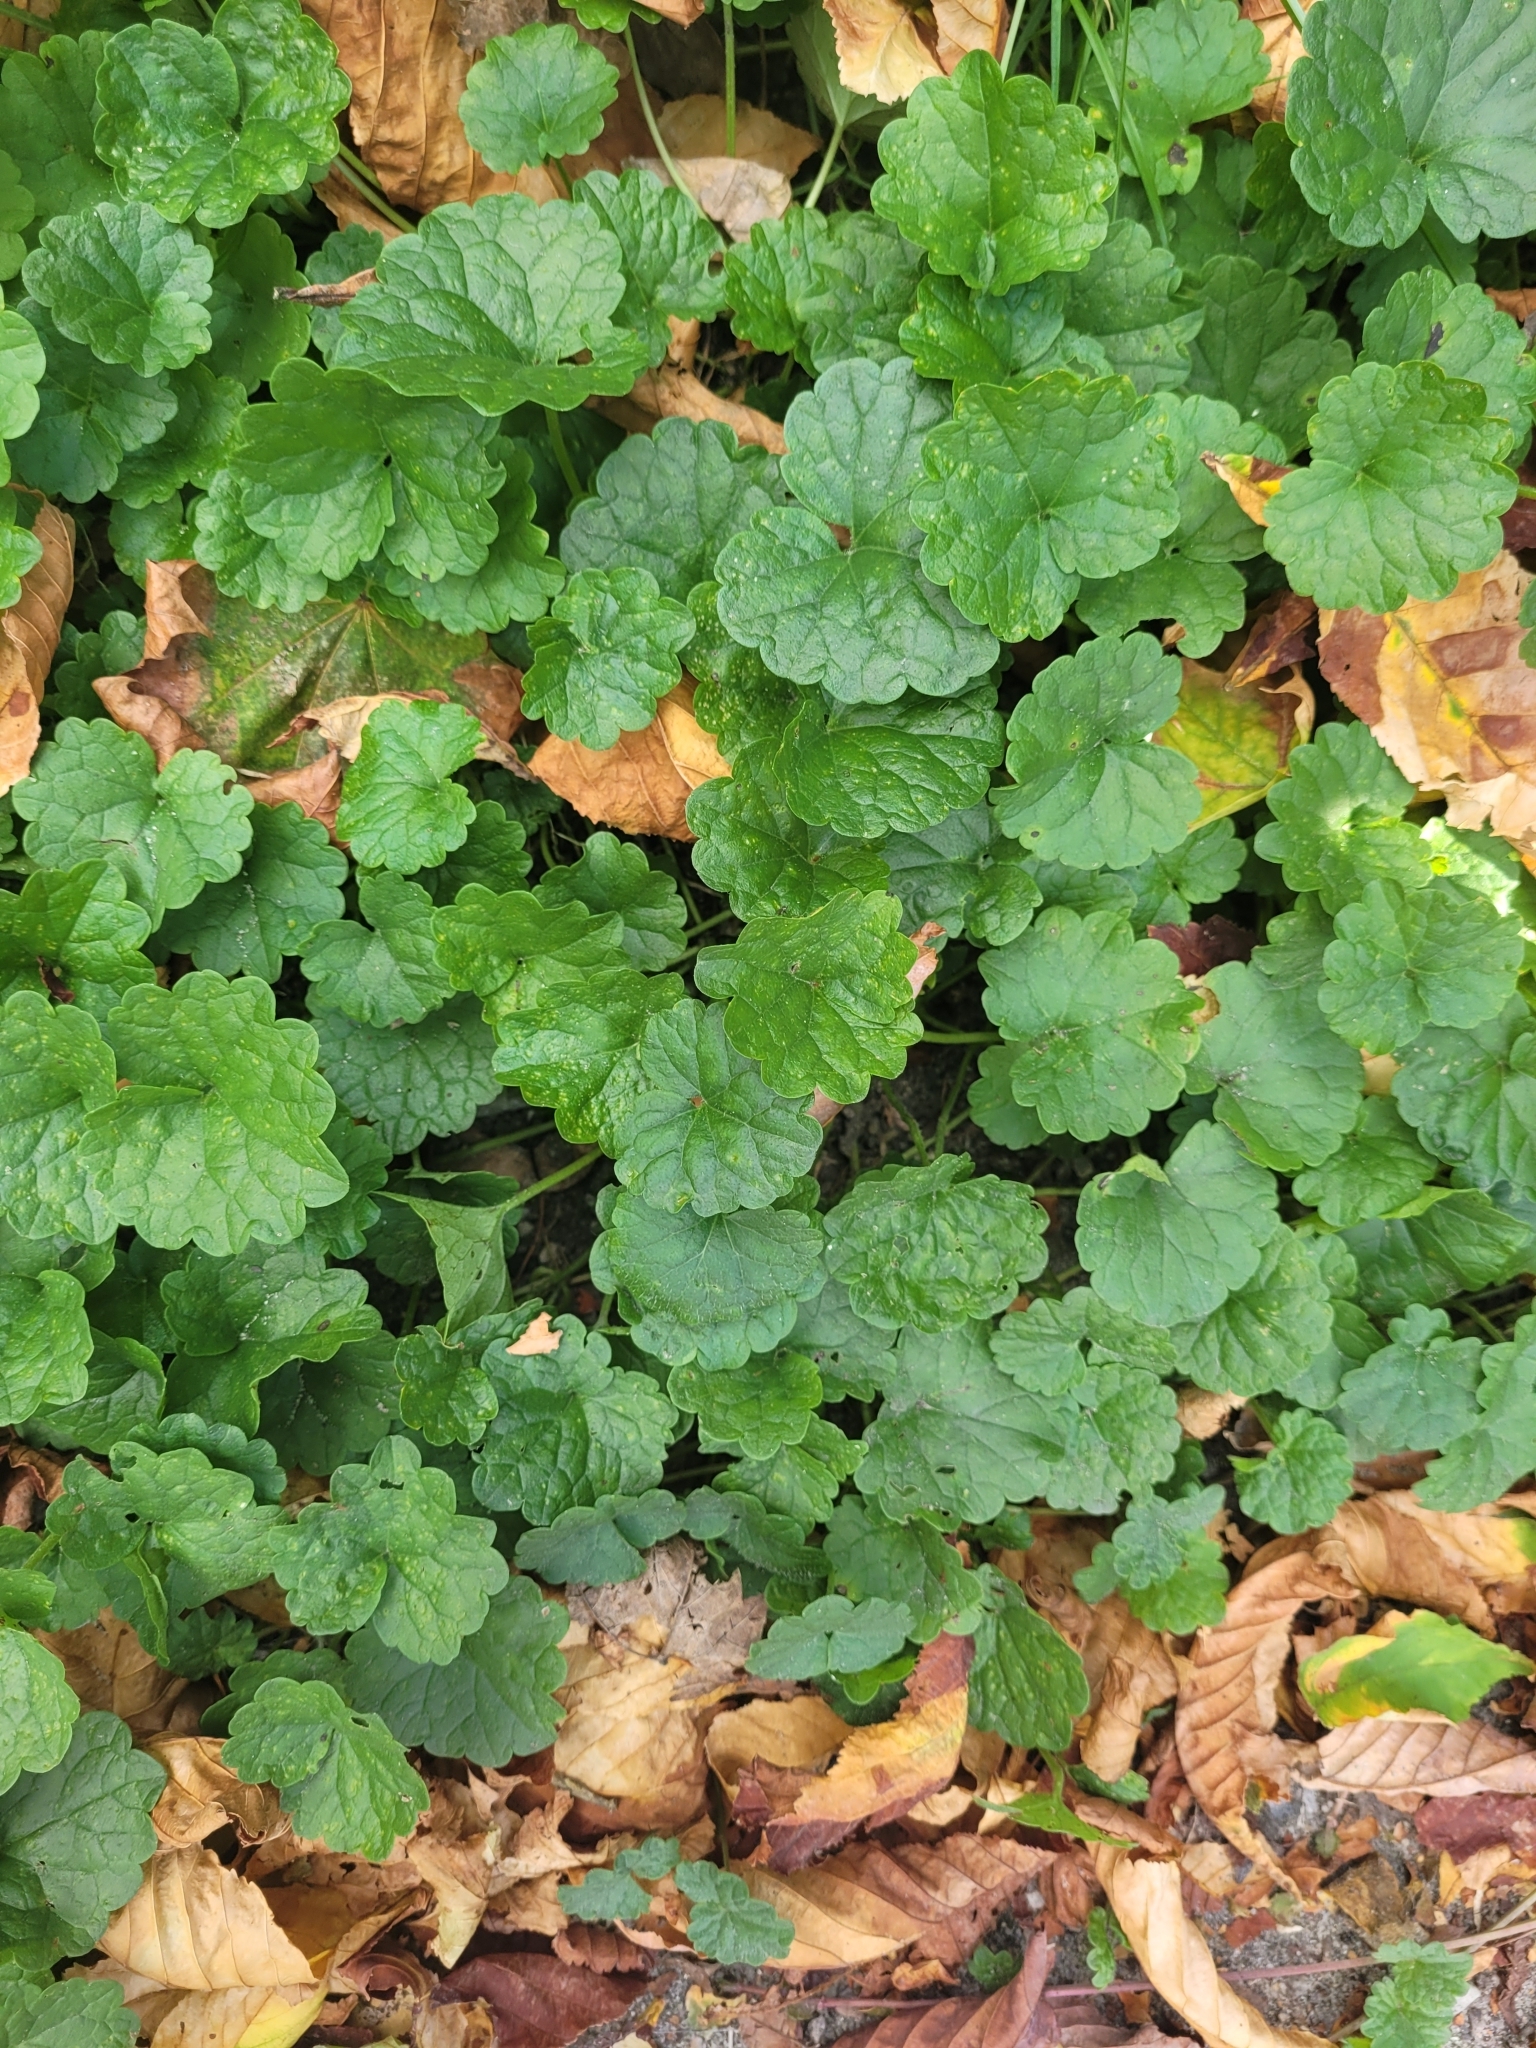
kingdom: Plantae
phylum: Tracheophyta
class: Magnoliopsida
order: Lamiales
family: Lamiaceae
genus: Glechoma
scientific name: Glechoma hederacea
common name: Ground ivy
